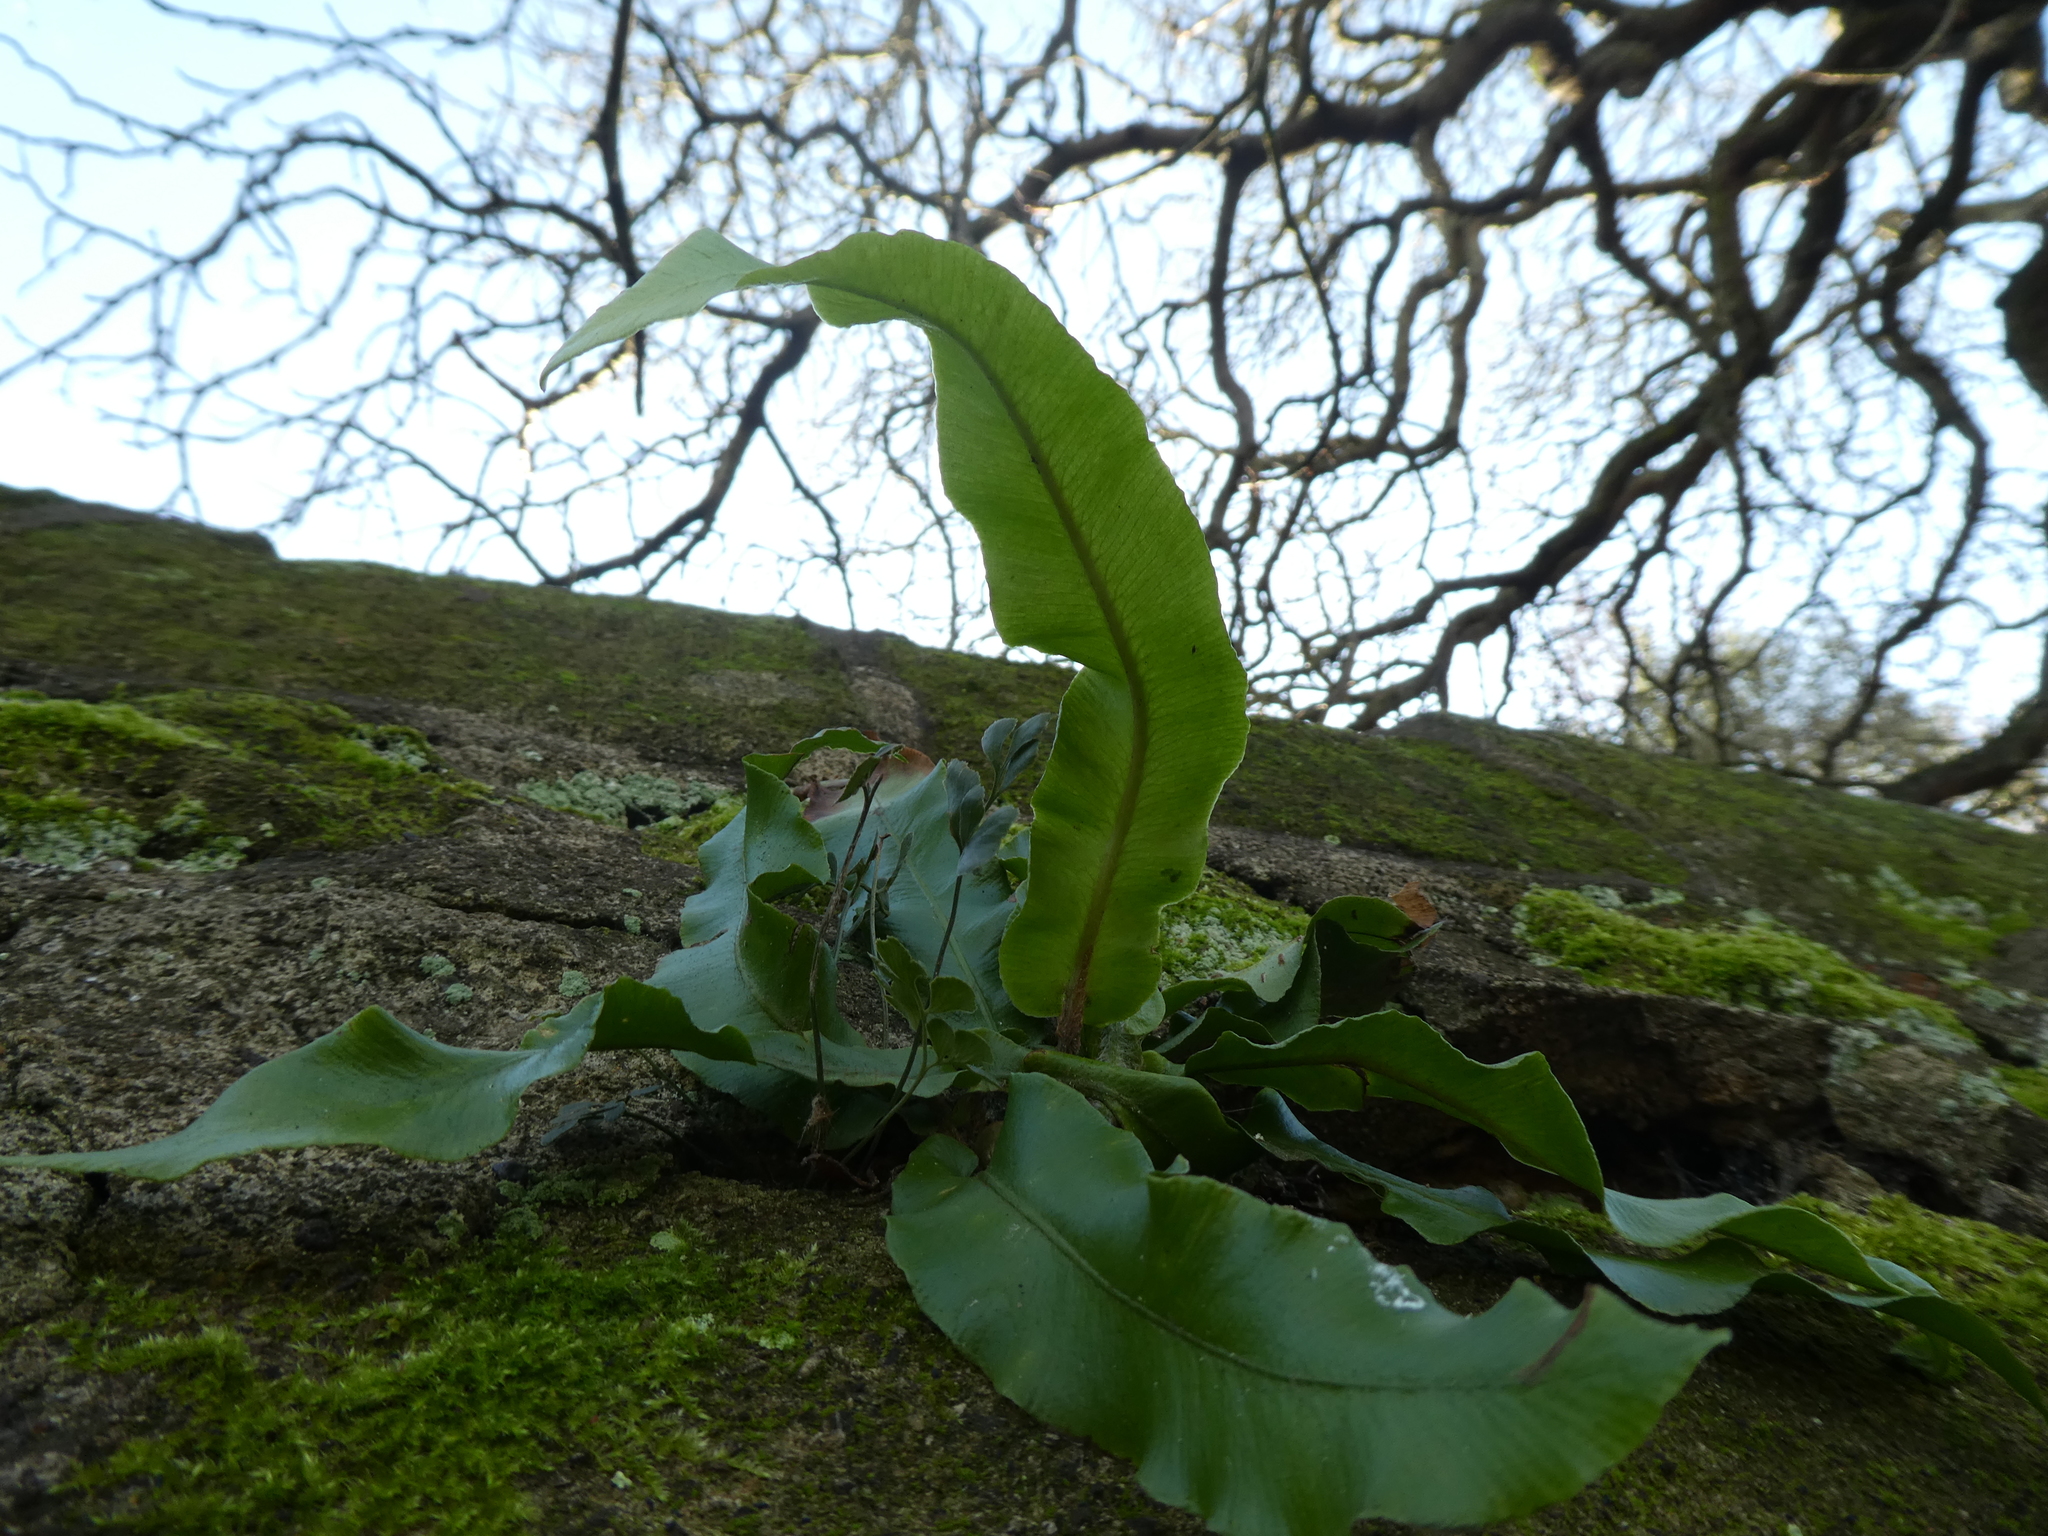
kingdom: Plantae
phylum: Tracheophyta
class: Polypodiopsida
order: Polypodiales
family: Aspleniaceae
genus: Asplenium
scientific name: Asplenium scolopendrium
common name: Hart's-tongue fern
